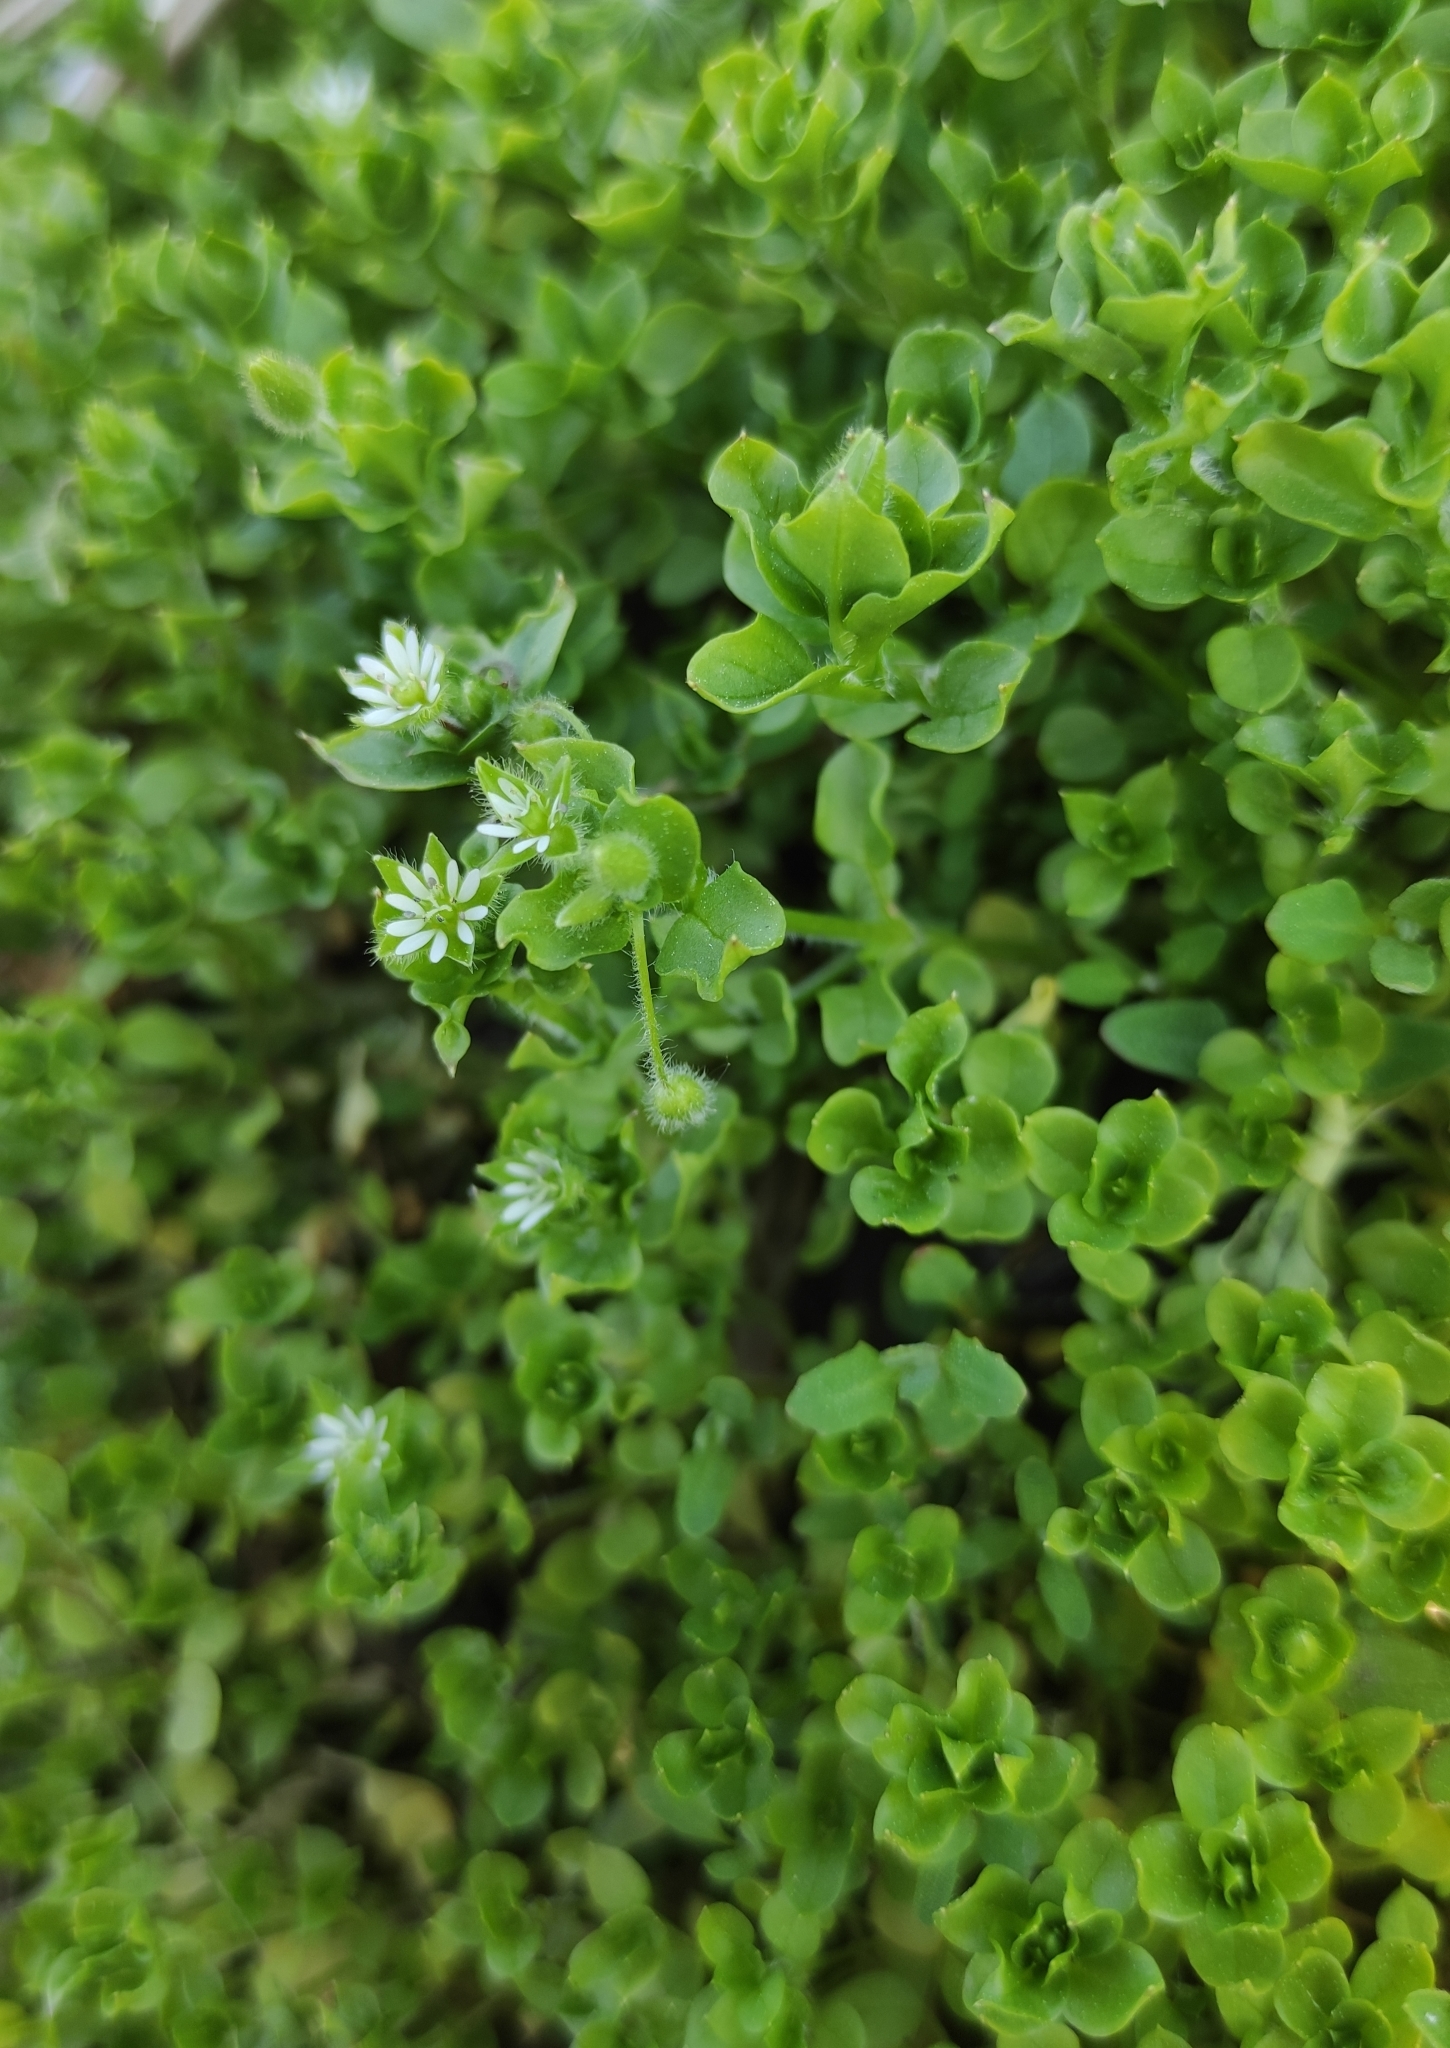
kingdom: Plantae
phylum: Tracheophyta
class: Magnoliopsida
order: Caryophyllales
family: Caryophyllaceae
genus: Stellaria
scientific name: Stellaria media
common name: Common chickweed
